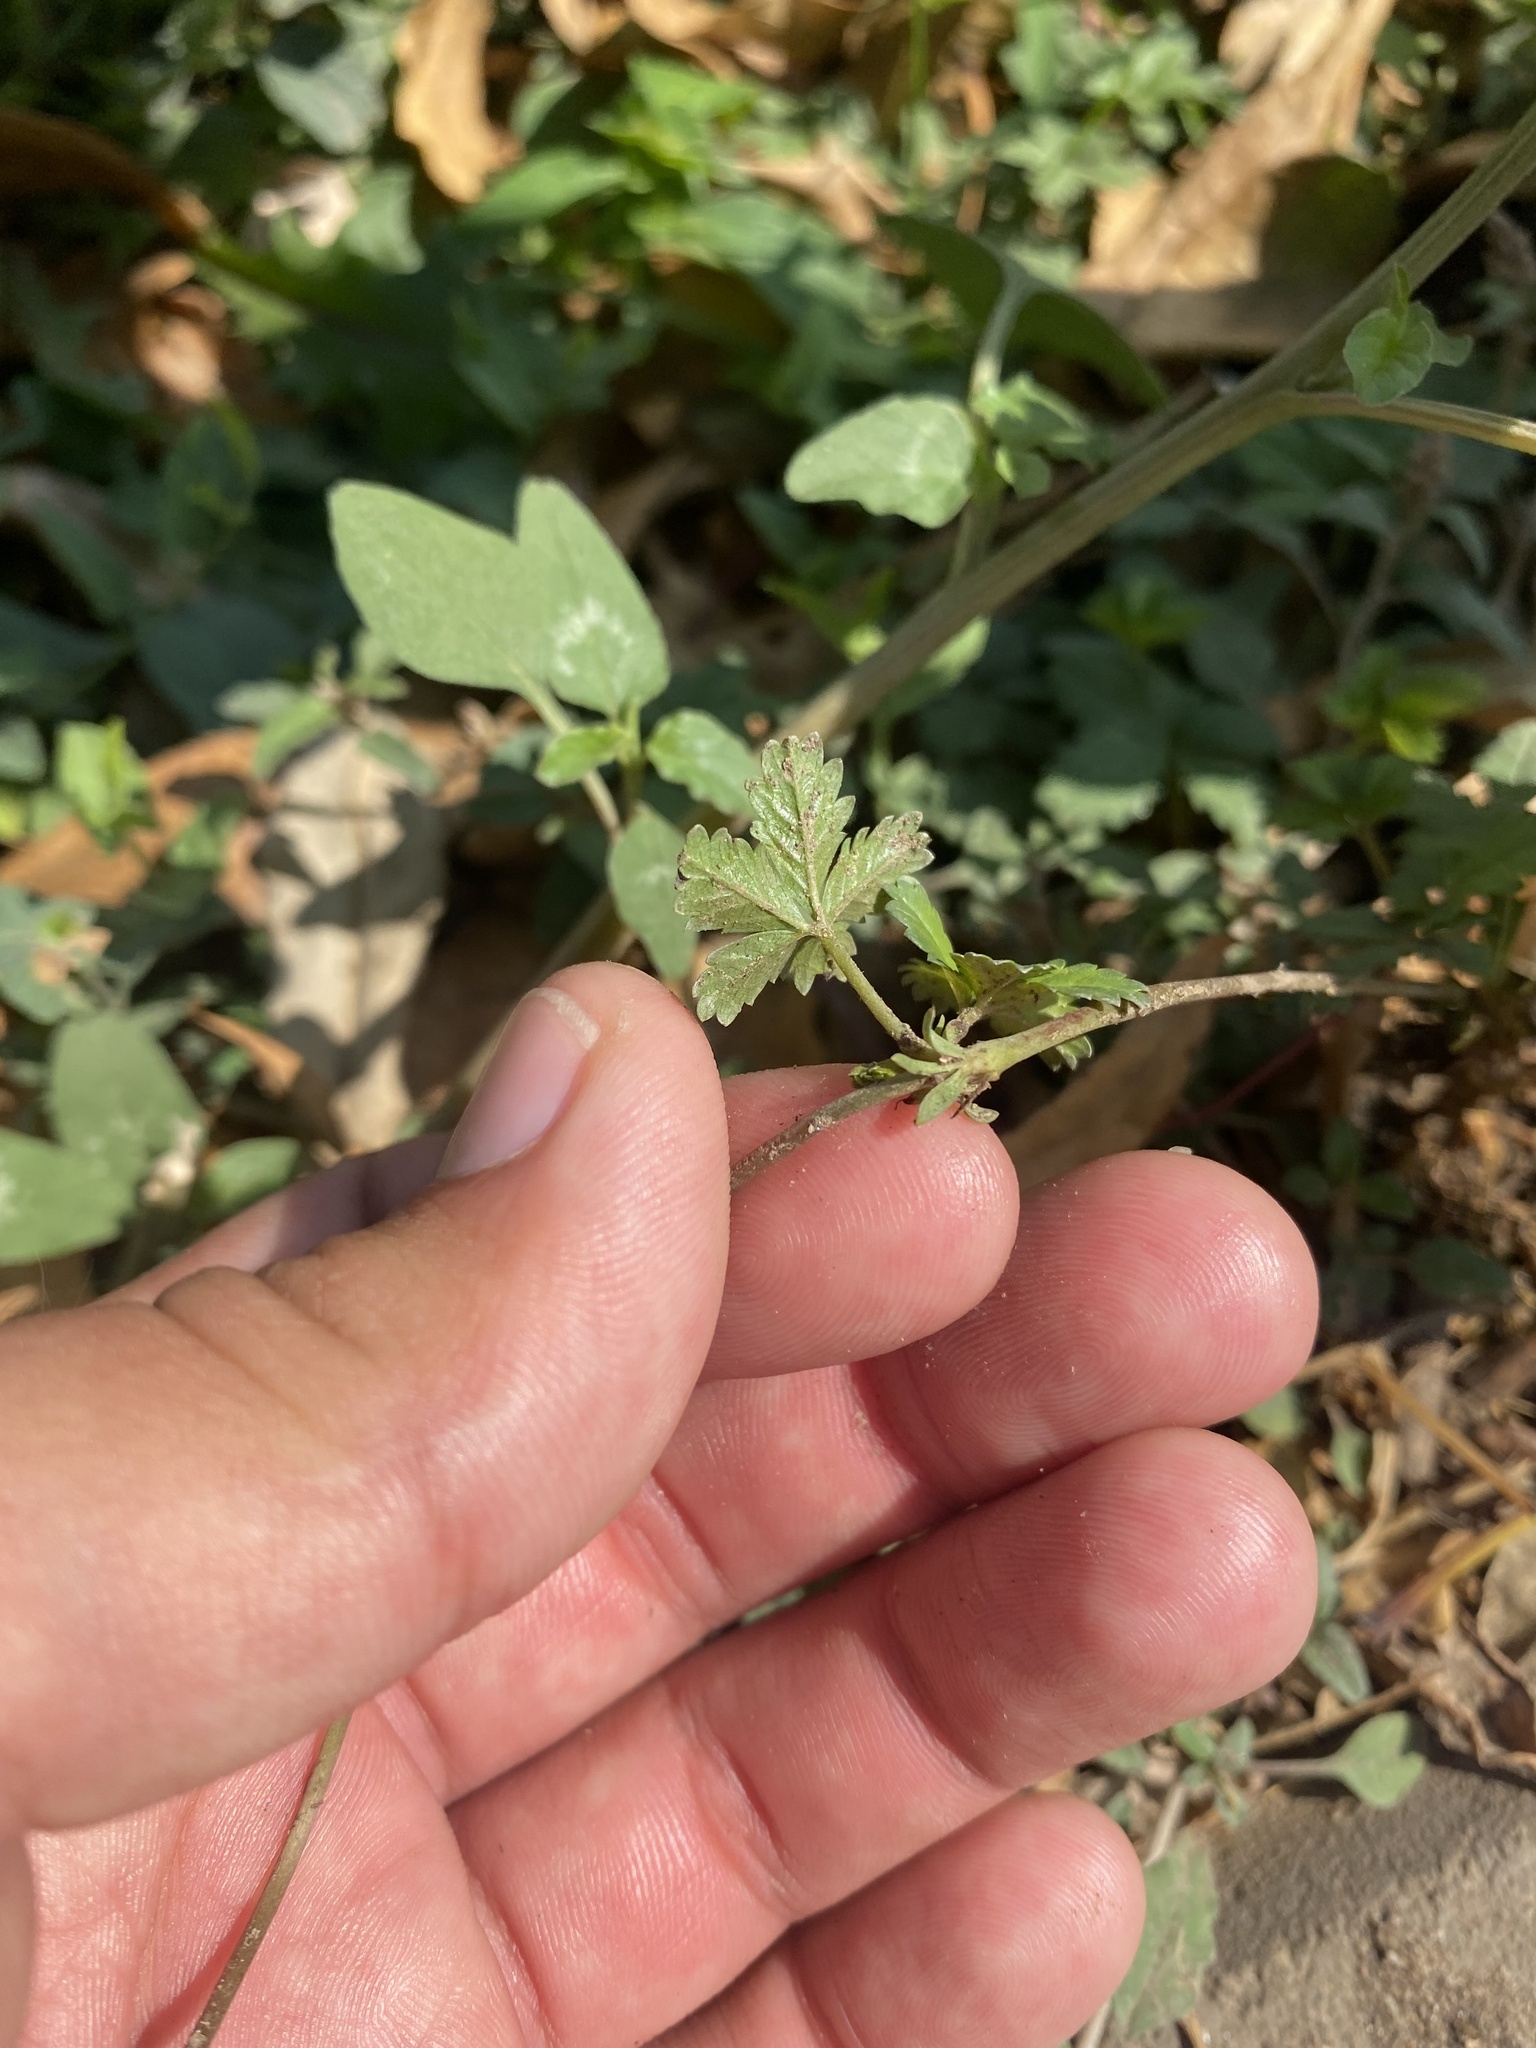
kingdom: Plantae
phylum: Tracheophyta
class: Magnoliopsida
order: Rosales
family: Rosaceae
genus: Potentilla
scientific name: Potentilla reptans
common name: Creeping cinquefoil
